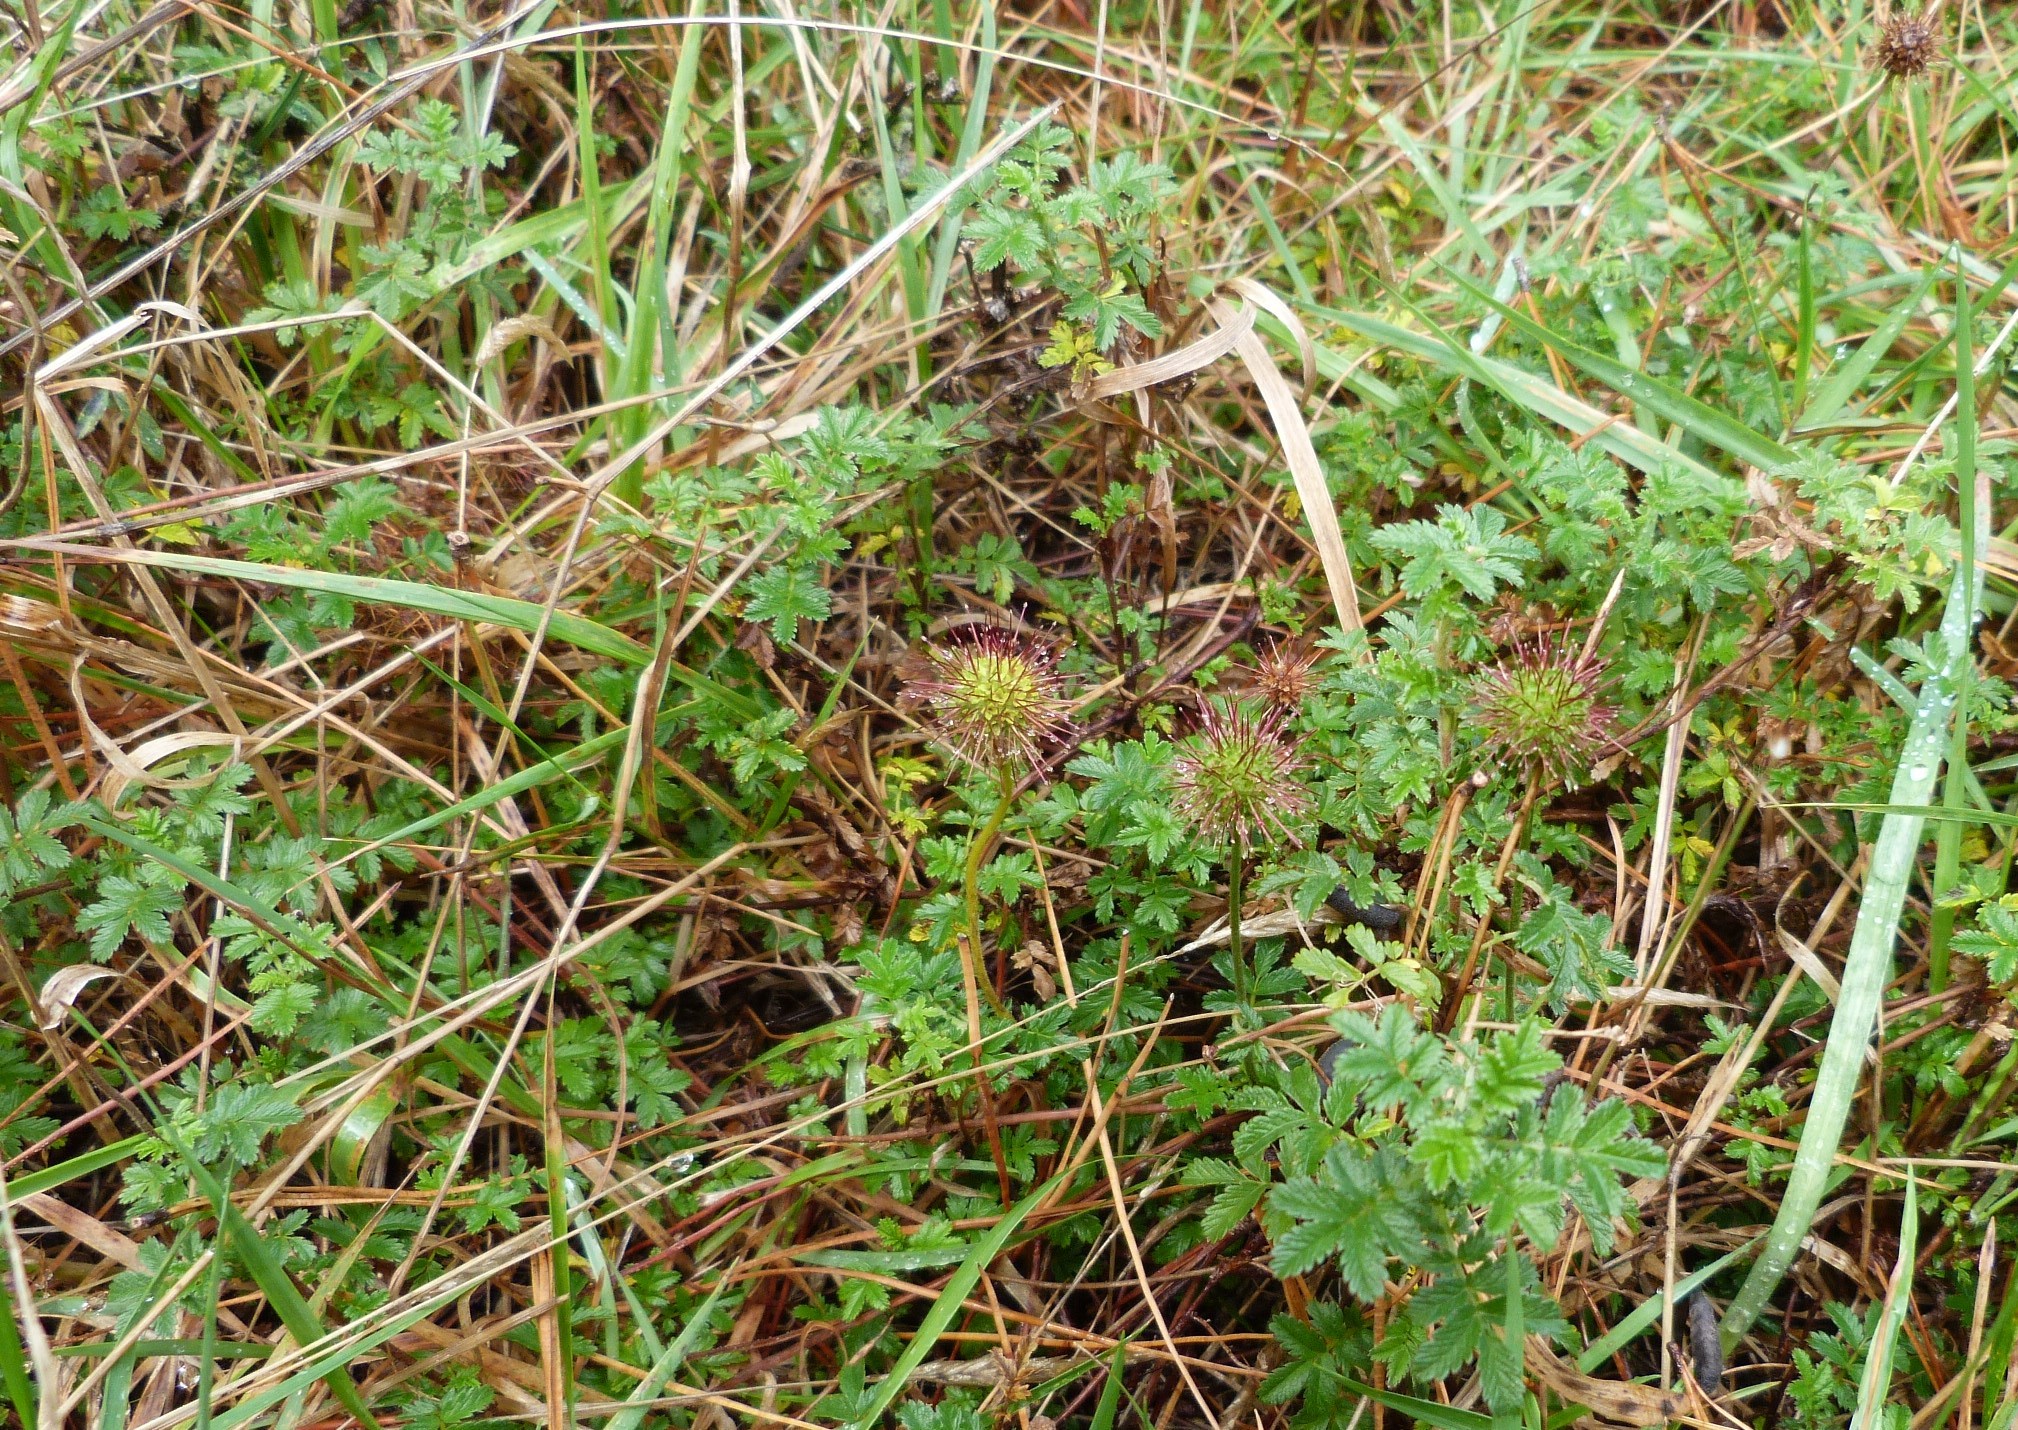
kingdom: Plantae
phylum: Tracheophyta
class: Magnoliopsida
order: Rosales
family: Rosaceae
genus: Acaena
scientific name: Acaena novae-zelandiae
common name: Pirri-pirri-bur
